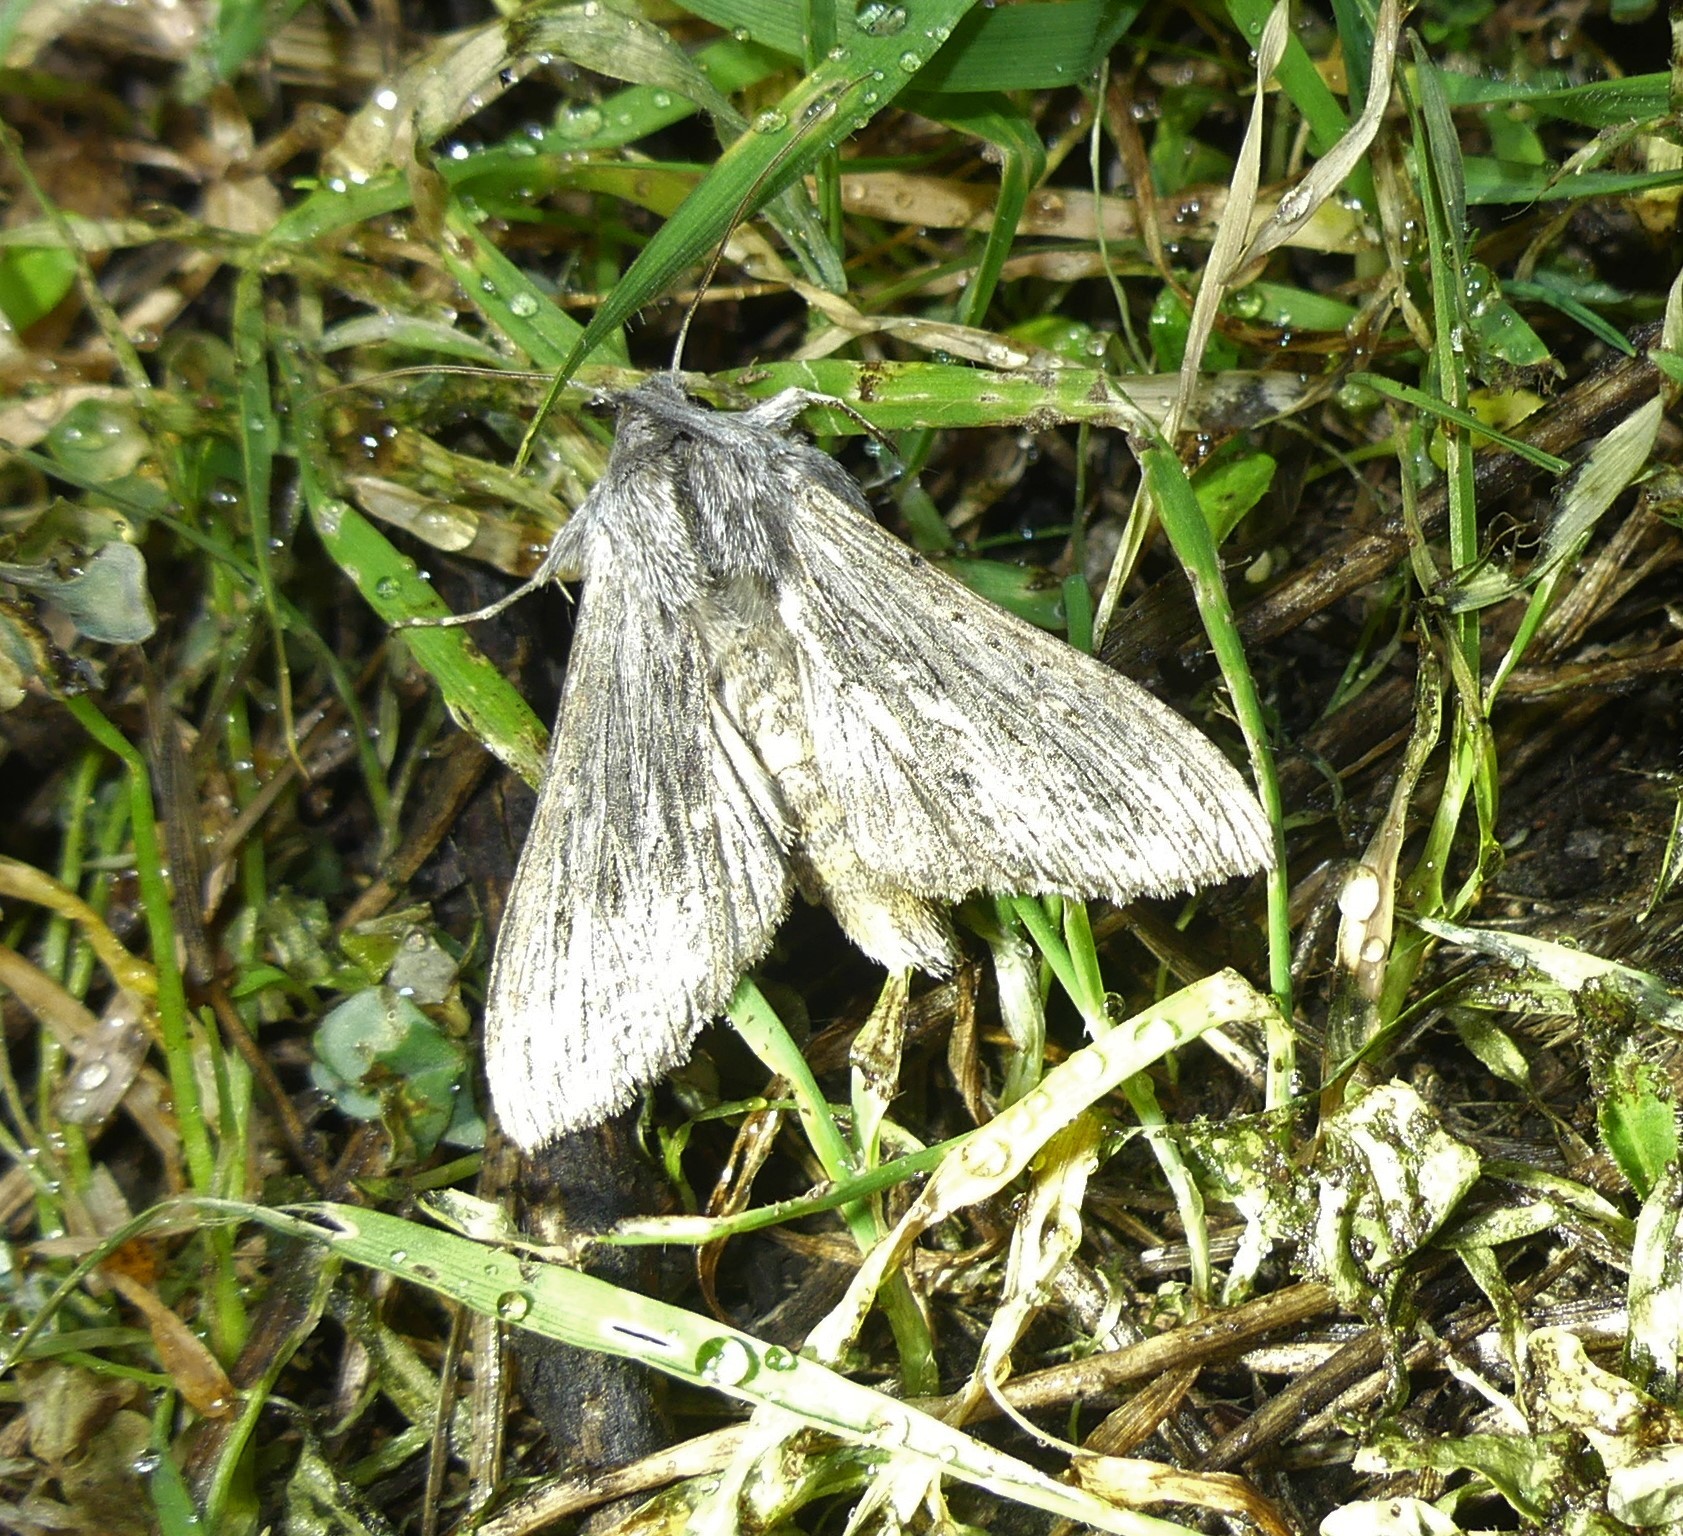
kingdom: Animalia
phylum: Arthropoda
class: Insecta
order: Lepidoptera
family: Noctuidae
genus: Cucullia
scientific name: Cucullia calendulae
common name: Marigold shark
